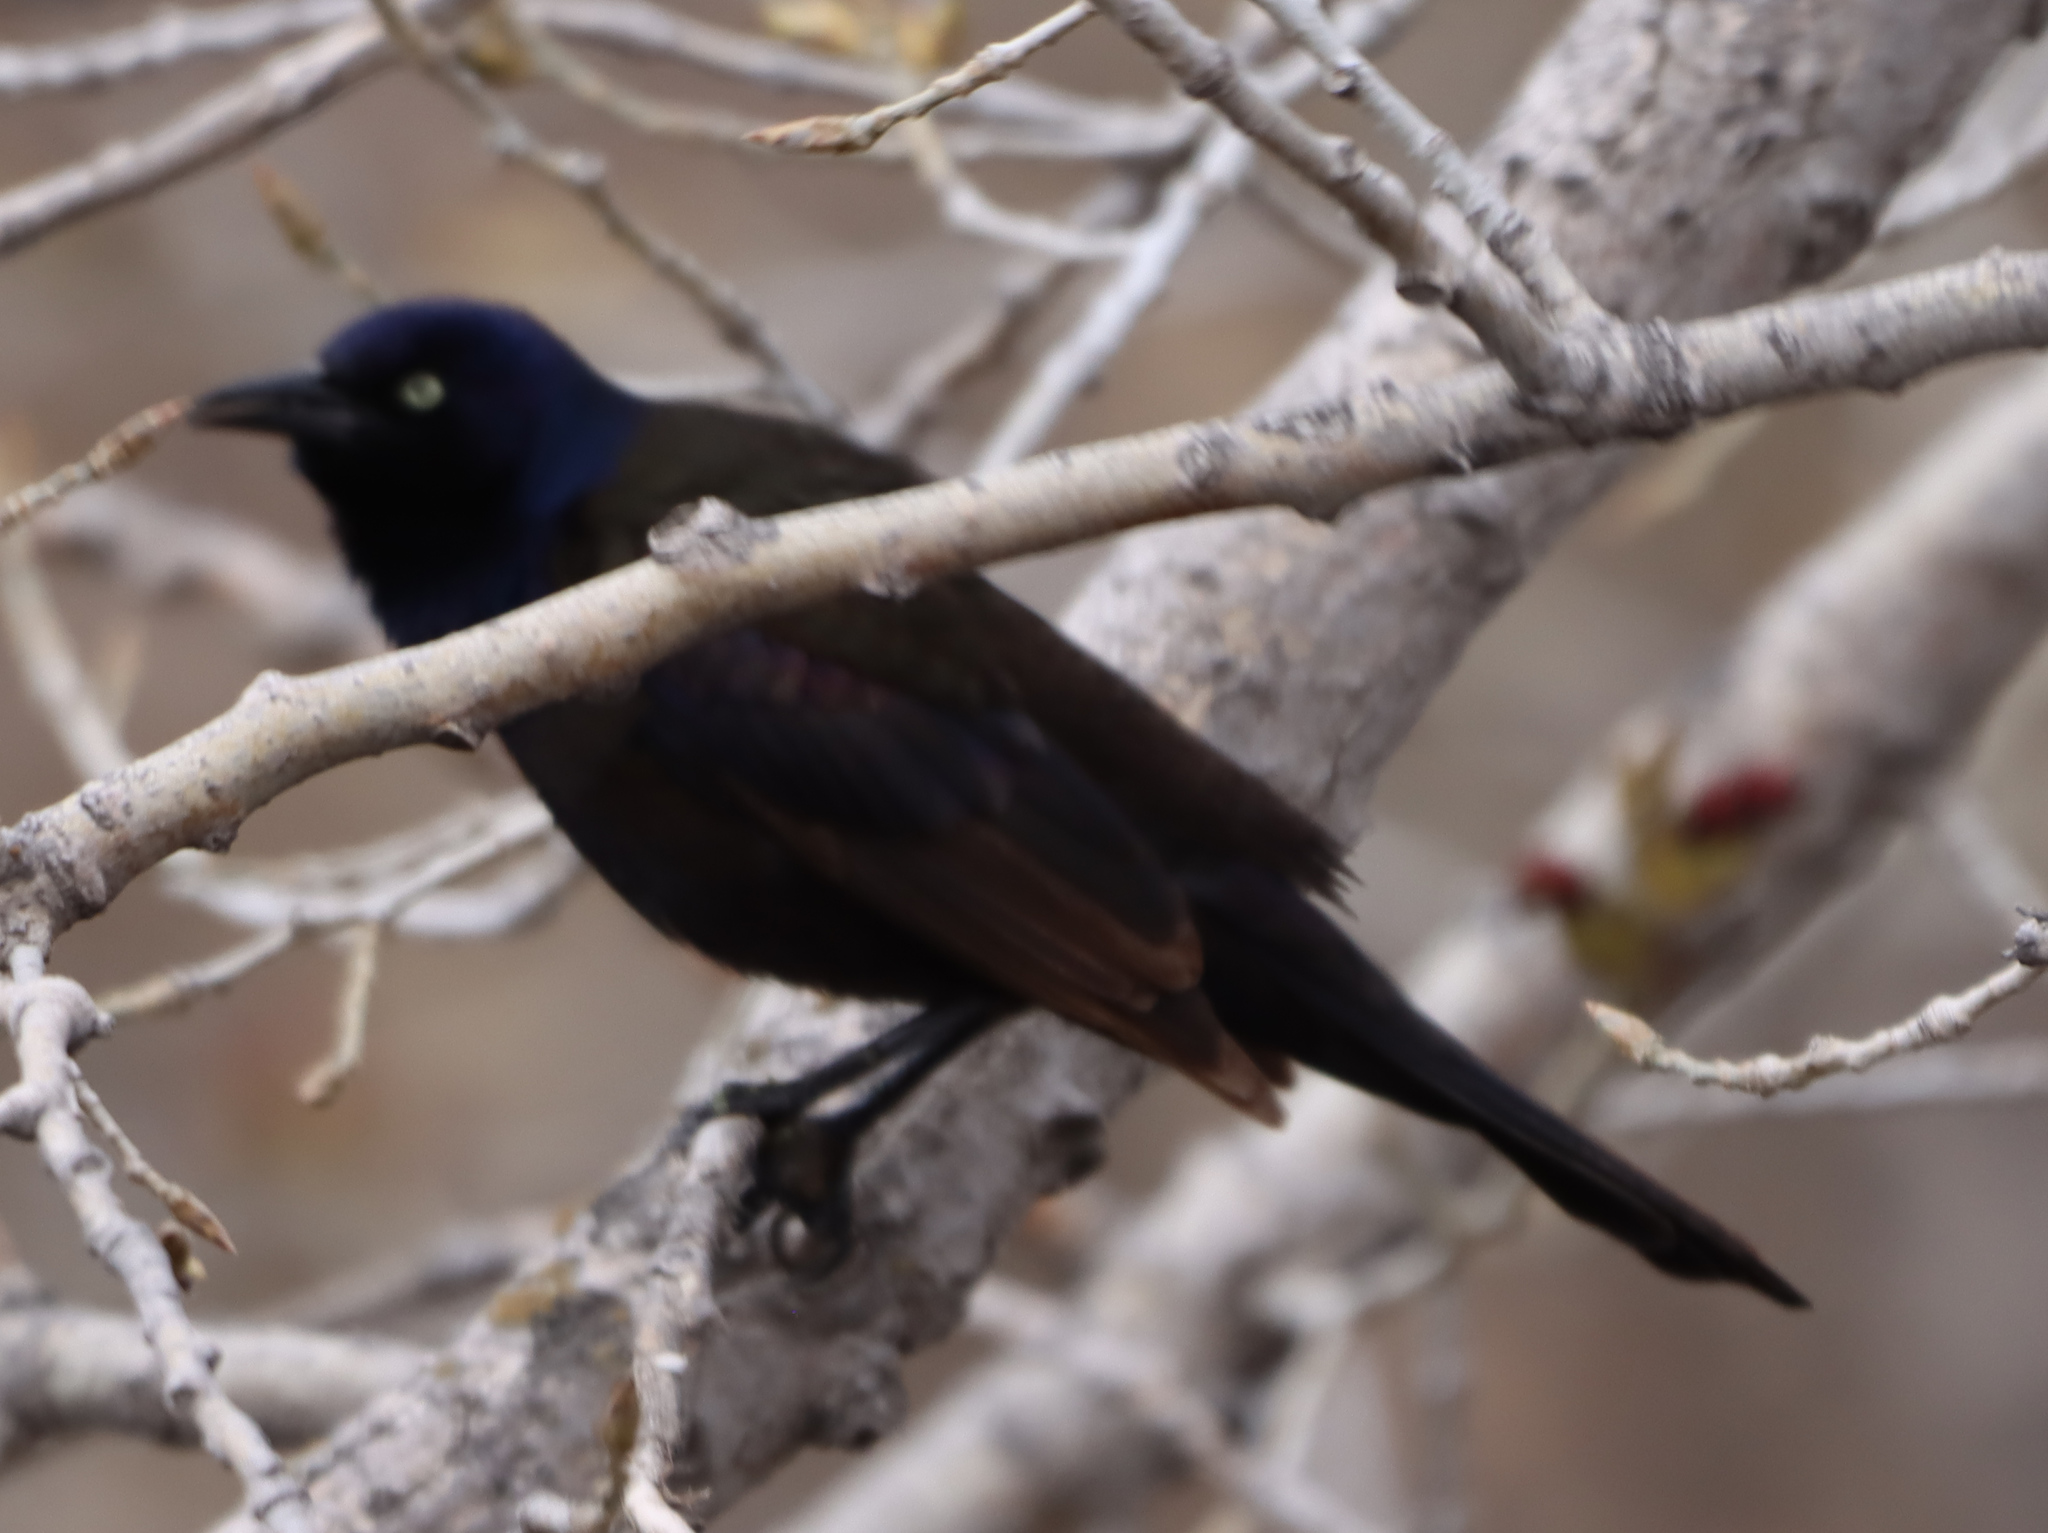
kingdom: Animalia
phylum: Chordata
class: Aves
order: Passeriformes
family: Icteridae
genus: Quiscalus
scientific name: Quiscalus quiscula
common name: Common grackle
